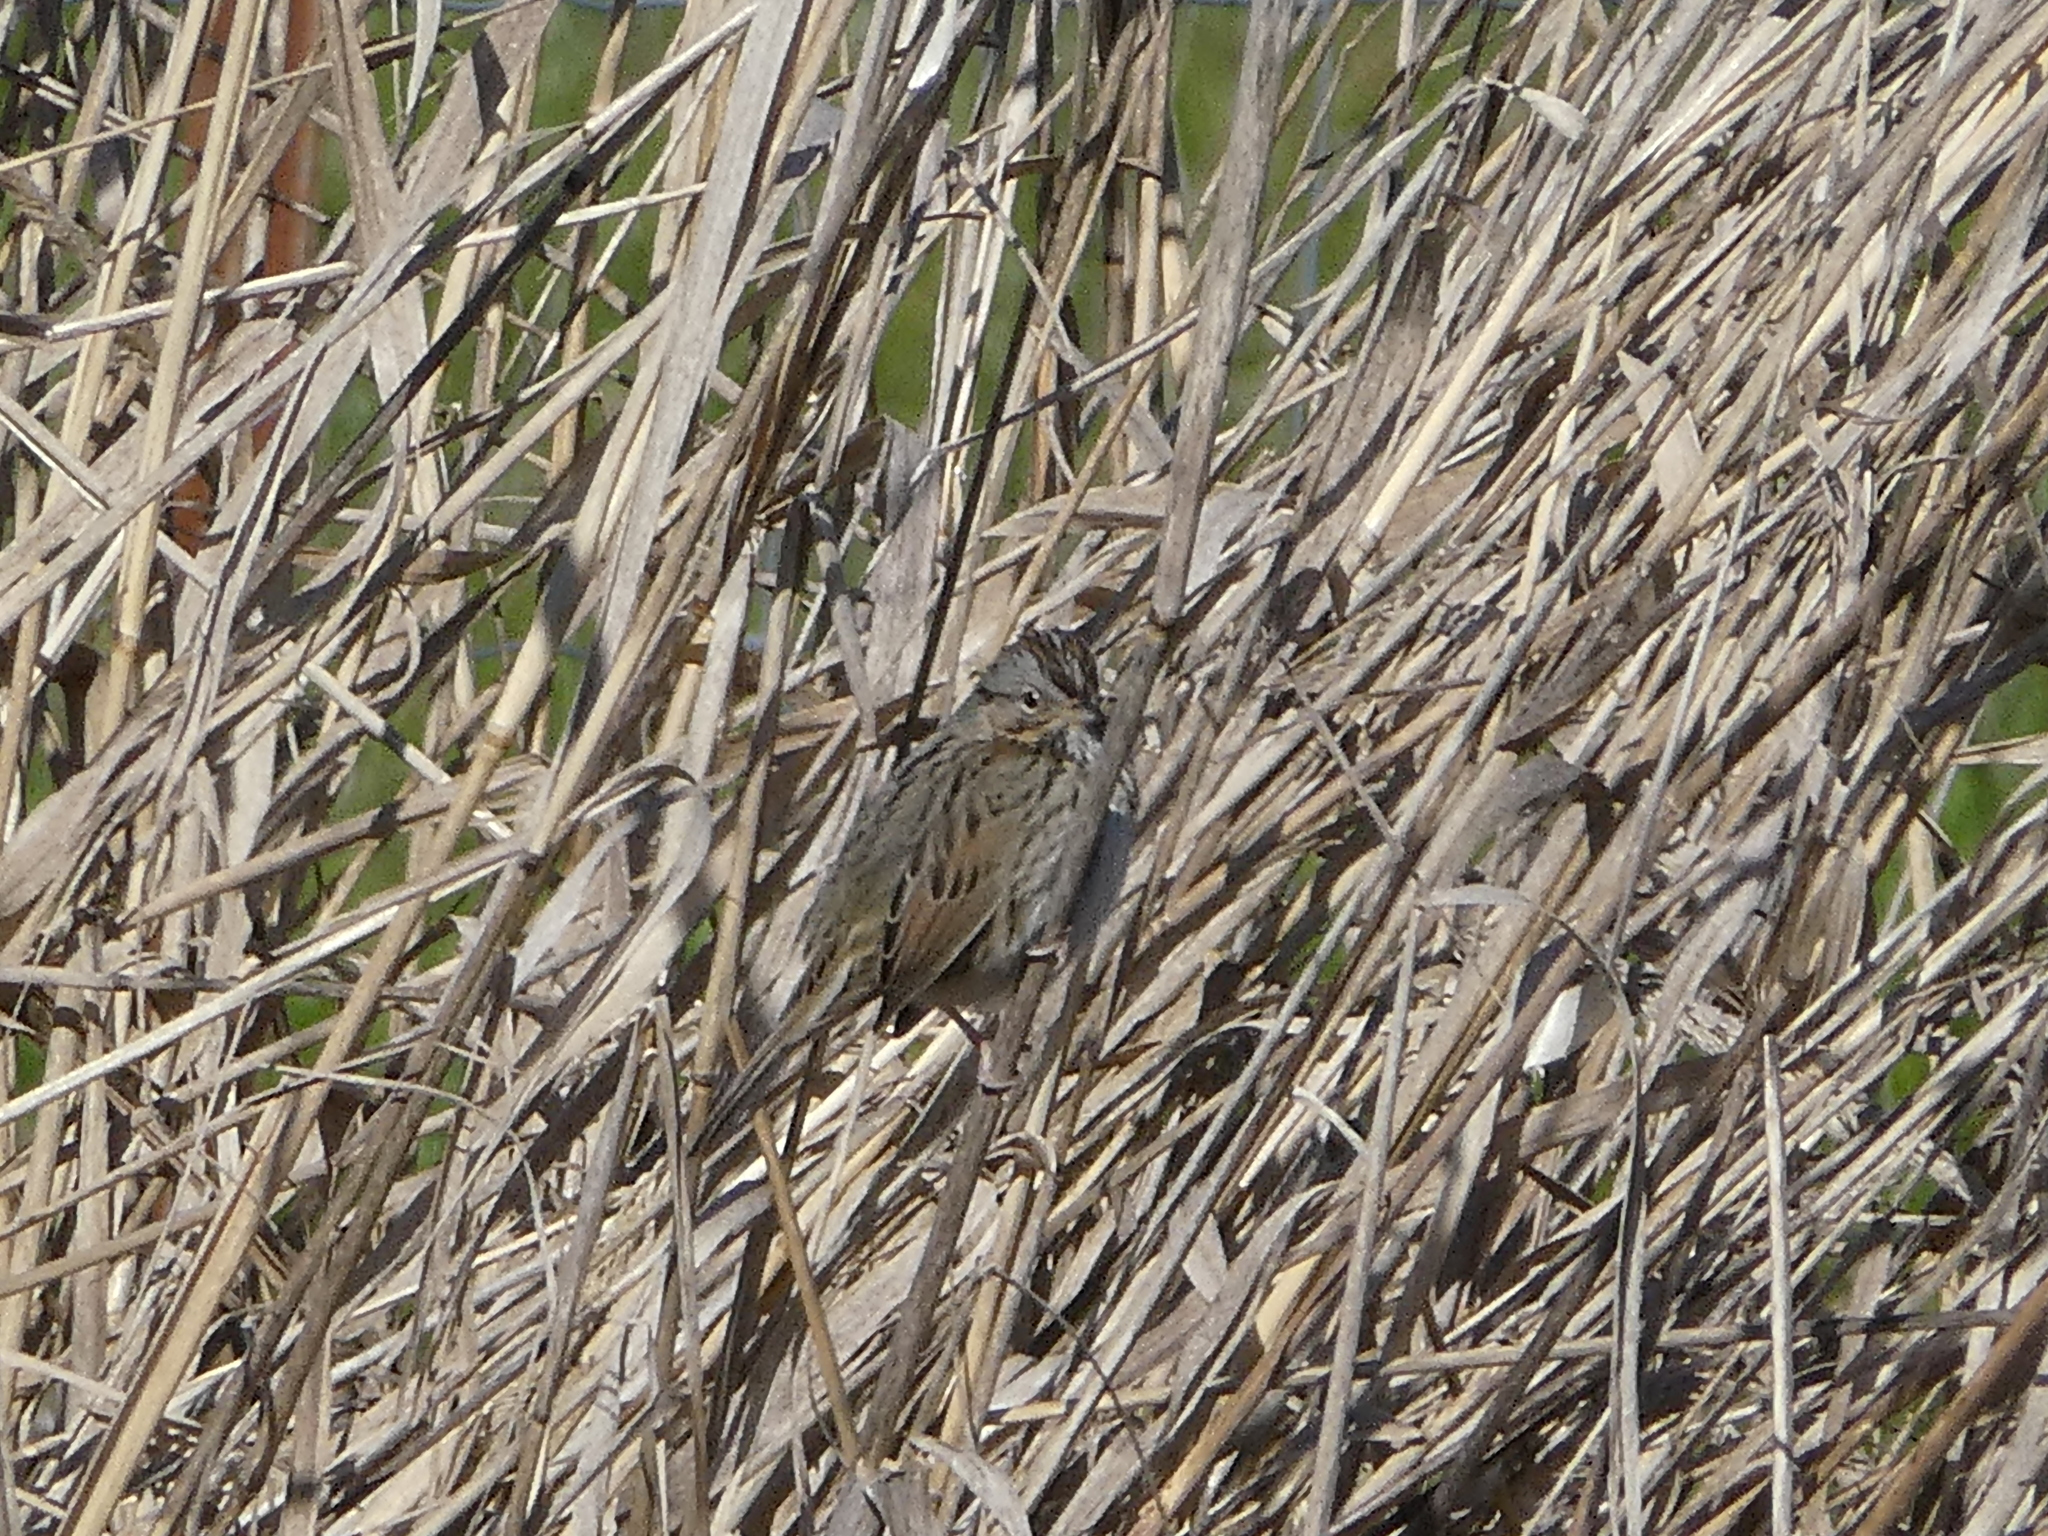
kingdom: Animalia
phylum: Chordata
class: Aves
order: Passeriformes
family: Passerellidae
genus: Melospiza
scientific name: Melospiza lincolnii
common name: Lincoln's sparrow
